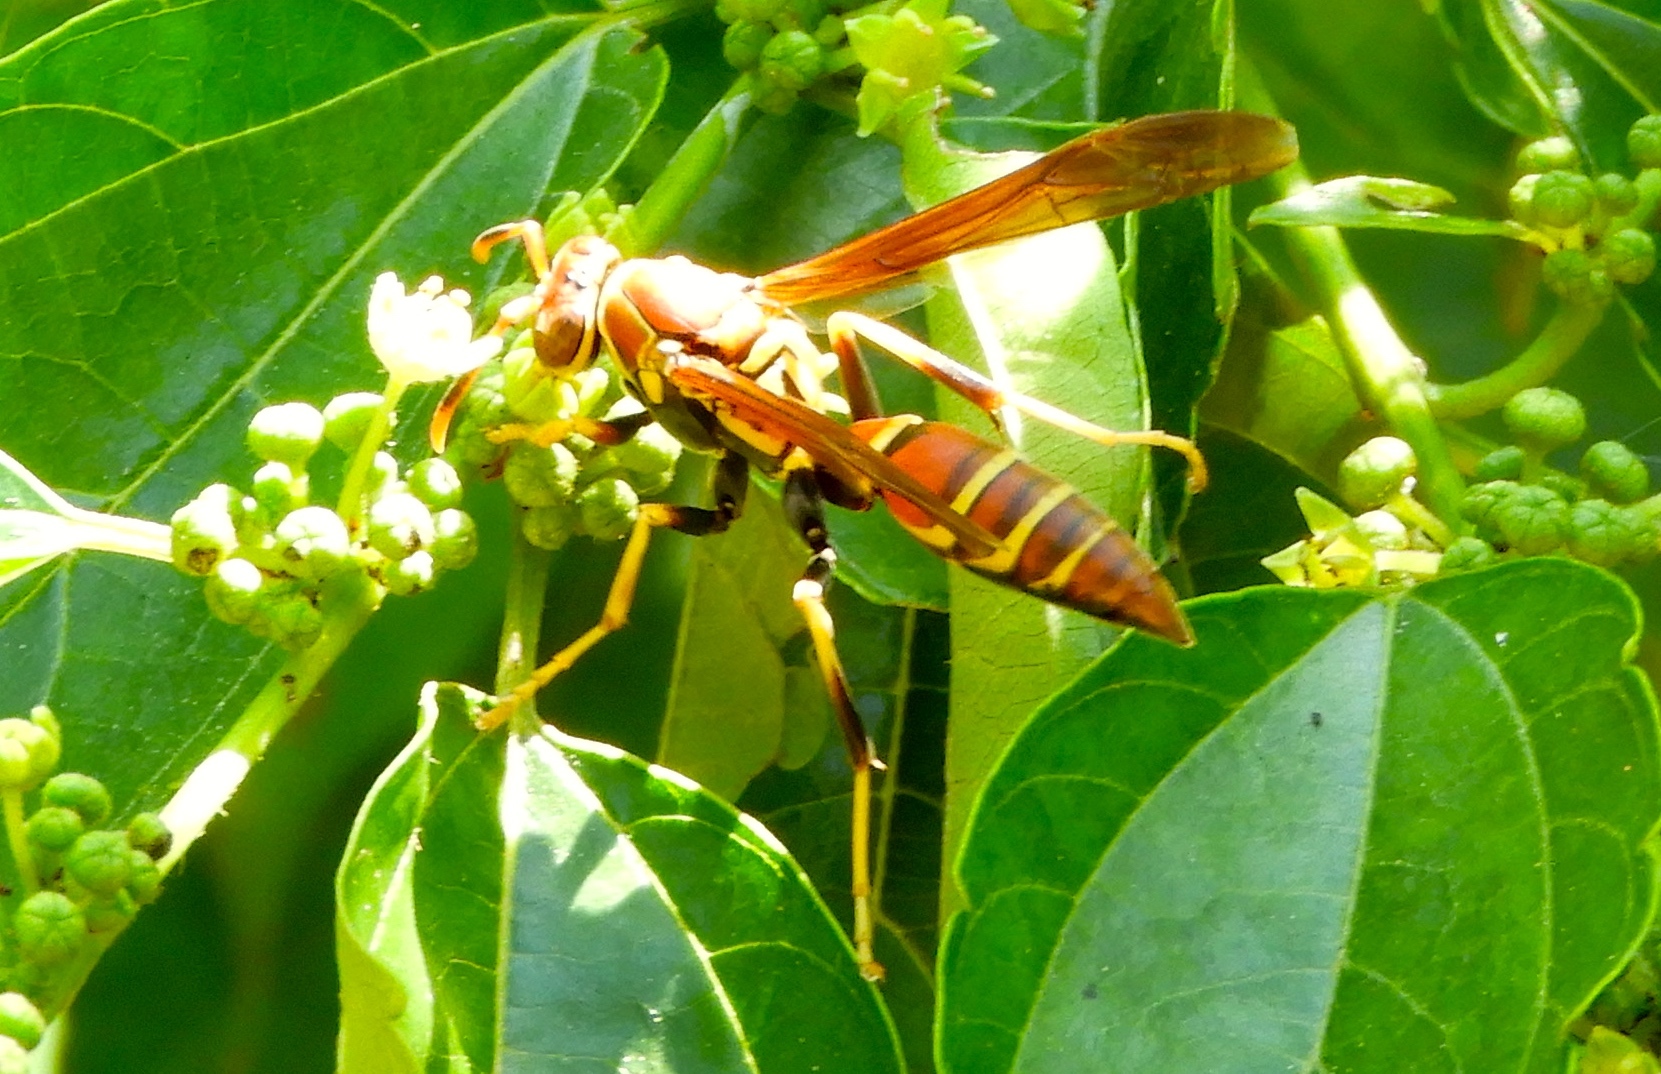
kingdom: Animalia
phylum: Arthropoda
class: Insecta
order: Hymenoptera
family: Eumenidae
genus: Polistes
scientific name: Polistes instabilis
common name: Unstable paper wasp
